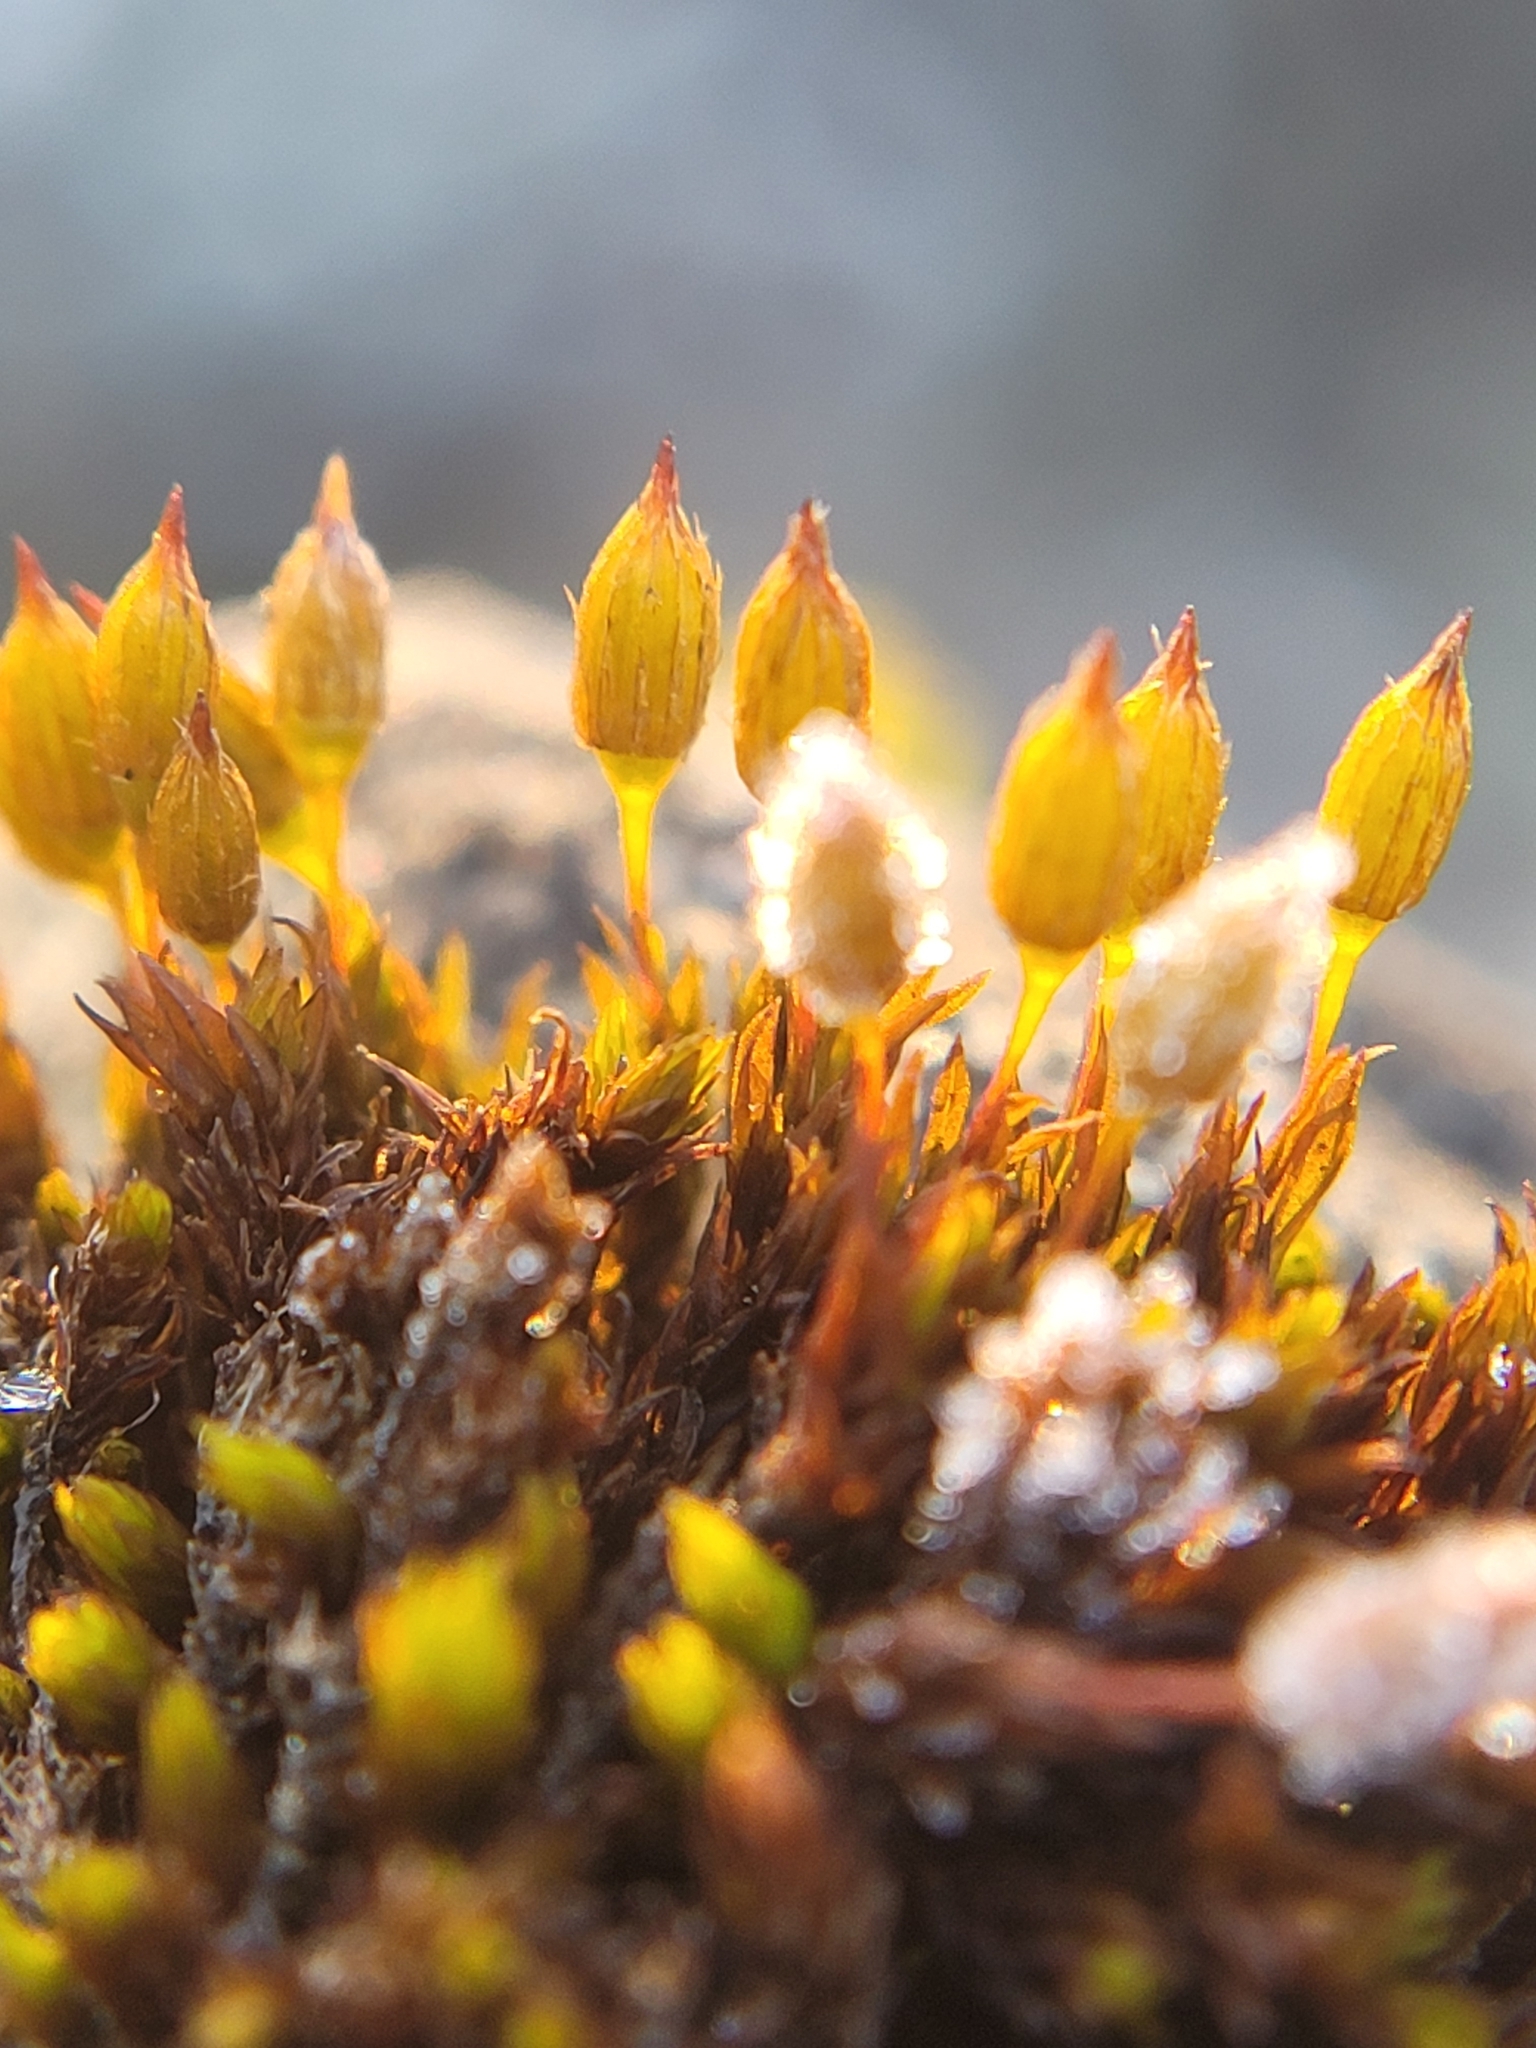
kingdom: Plantae
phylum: Bryophyta
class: Bryopsida
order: Orthotrichales
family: Orthotrichaceae
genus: Orthotrichum
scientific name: Orthotrichum anomalum
